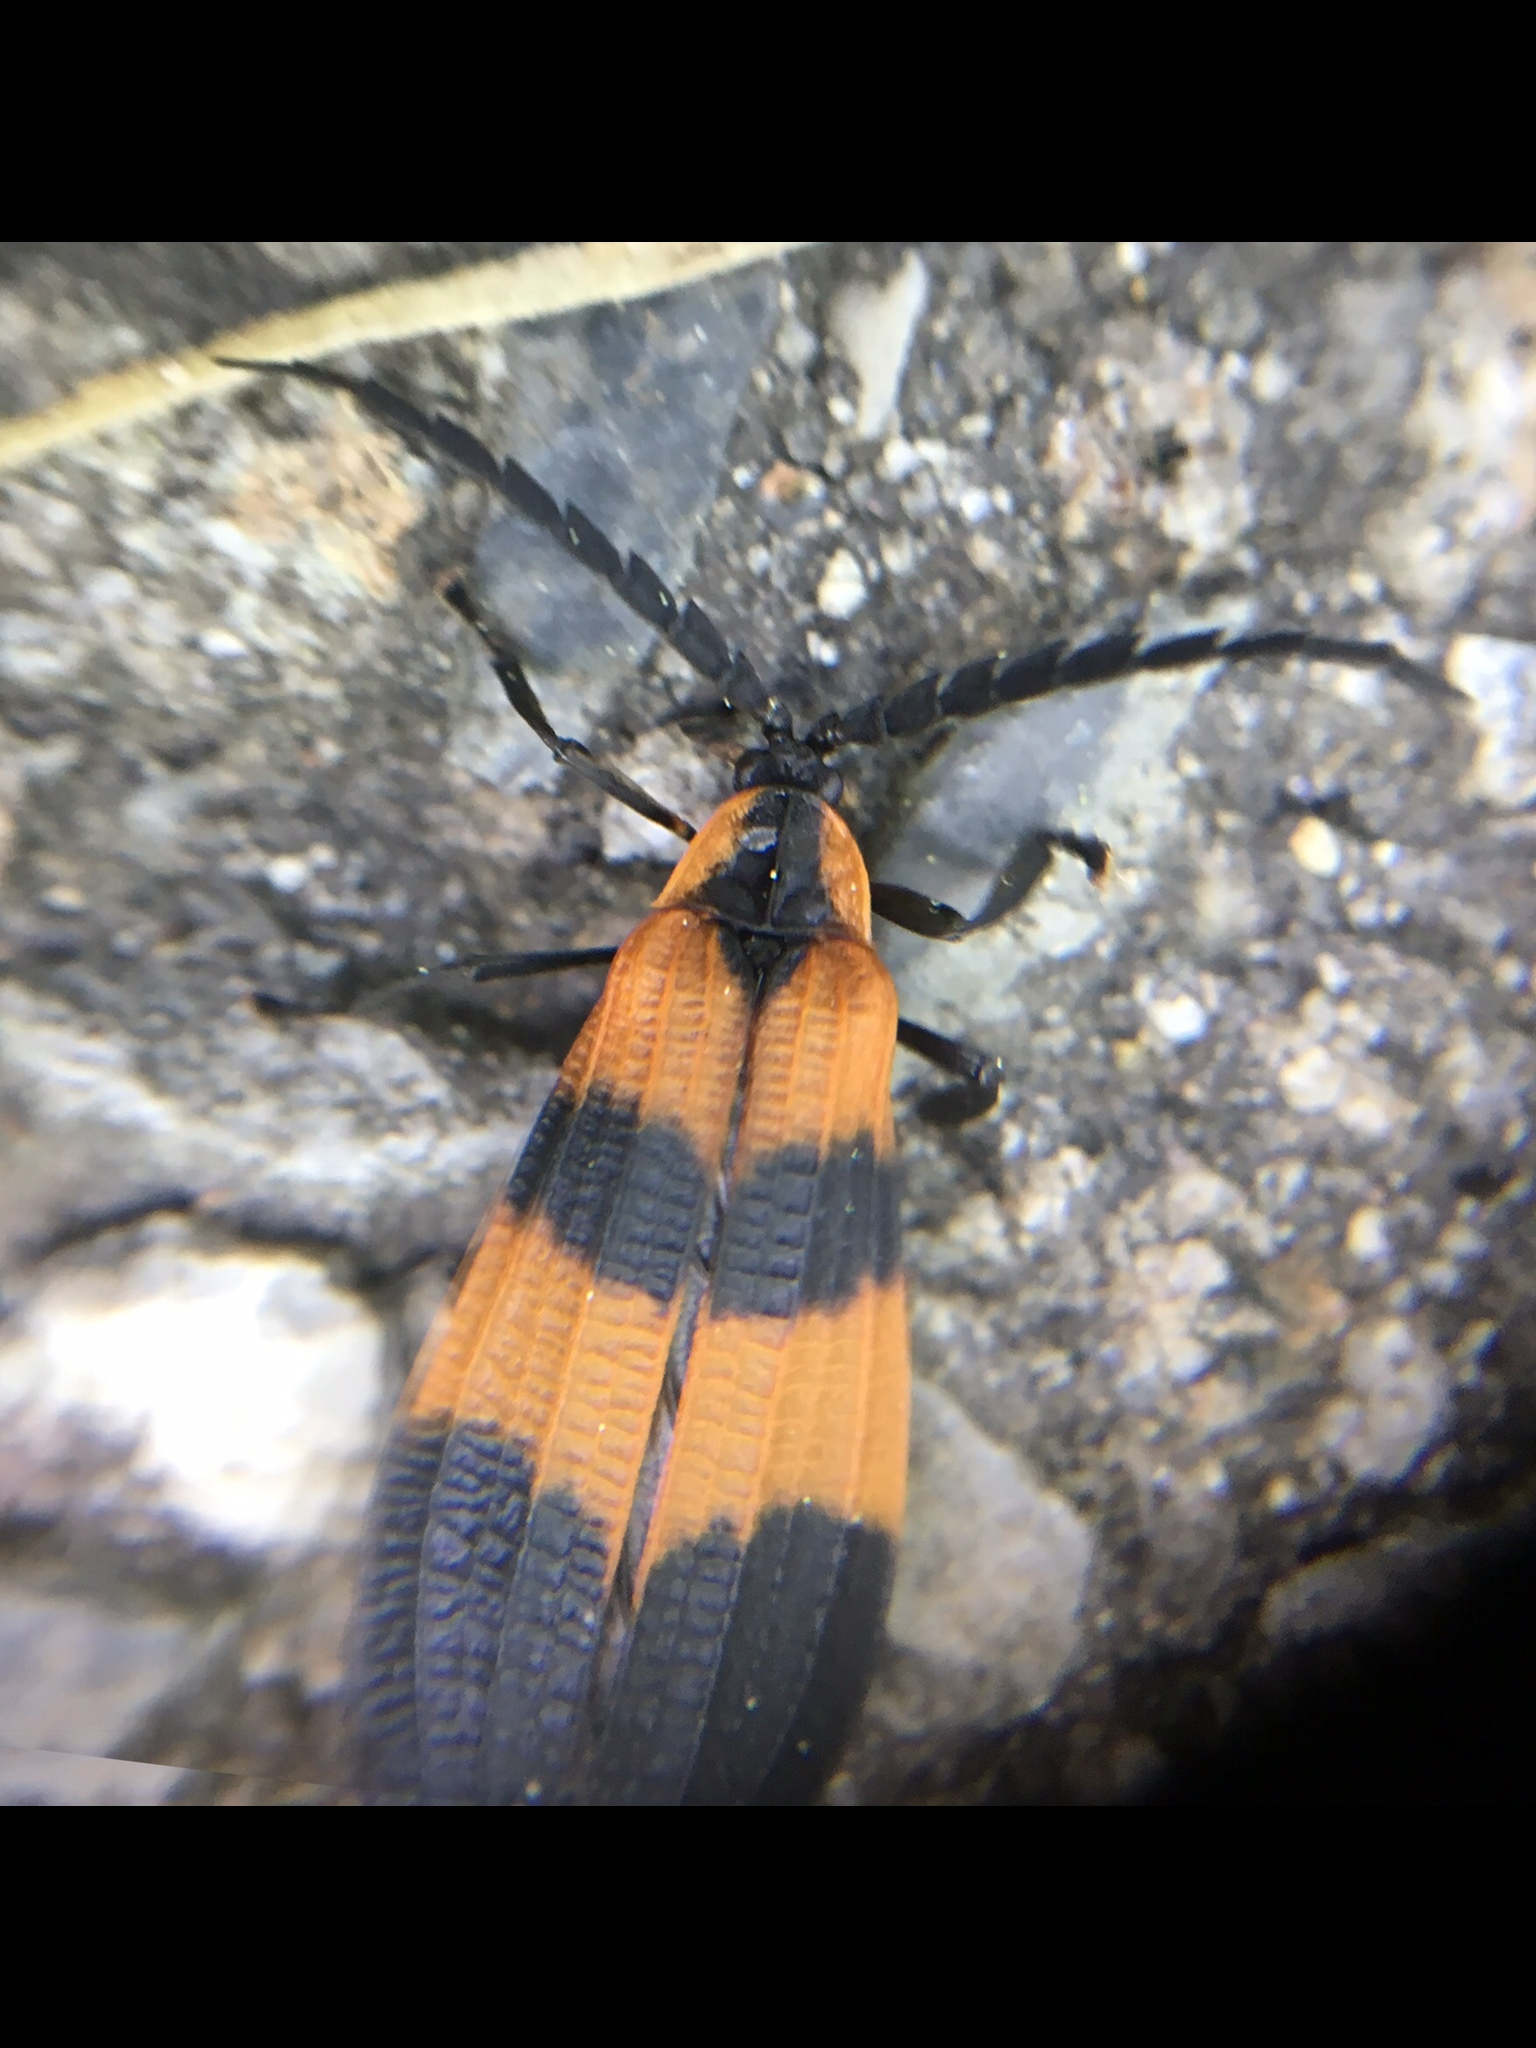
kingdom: Animalia
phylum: Arthropoda
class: Insecta
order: Coleoptera
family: Lycidae
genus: Calopteron
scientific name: Calopteron discrepans
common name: Banded net-winged beetle
